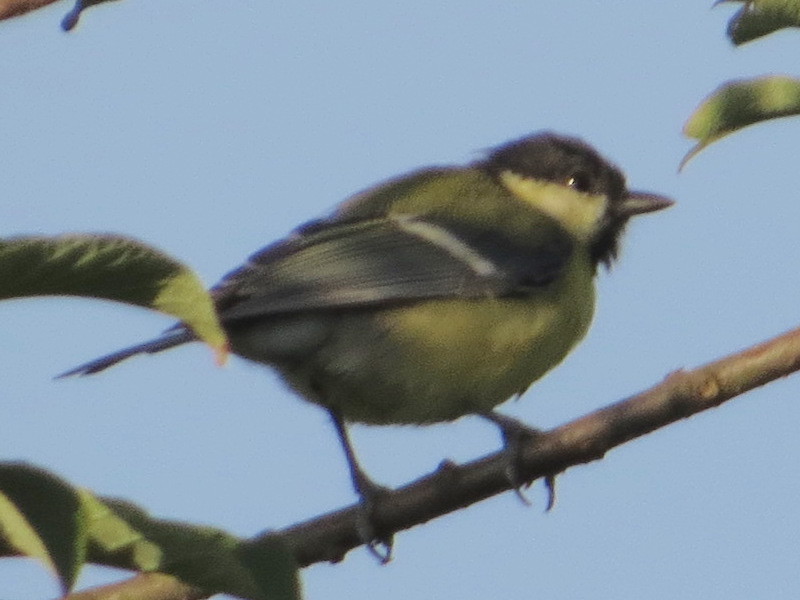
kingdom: Animalia
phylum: Chordata
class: Aves
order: Passeriformes
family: Paridae
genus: Parus
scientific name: Parus major
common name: Great tit
